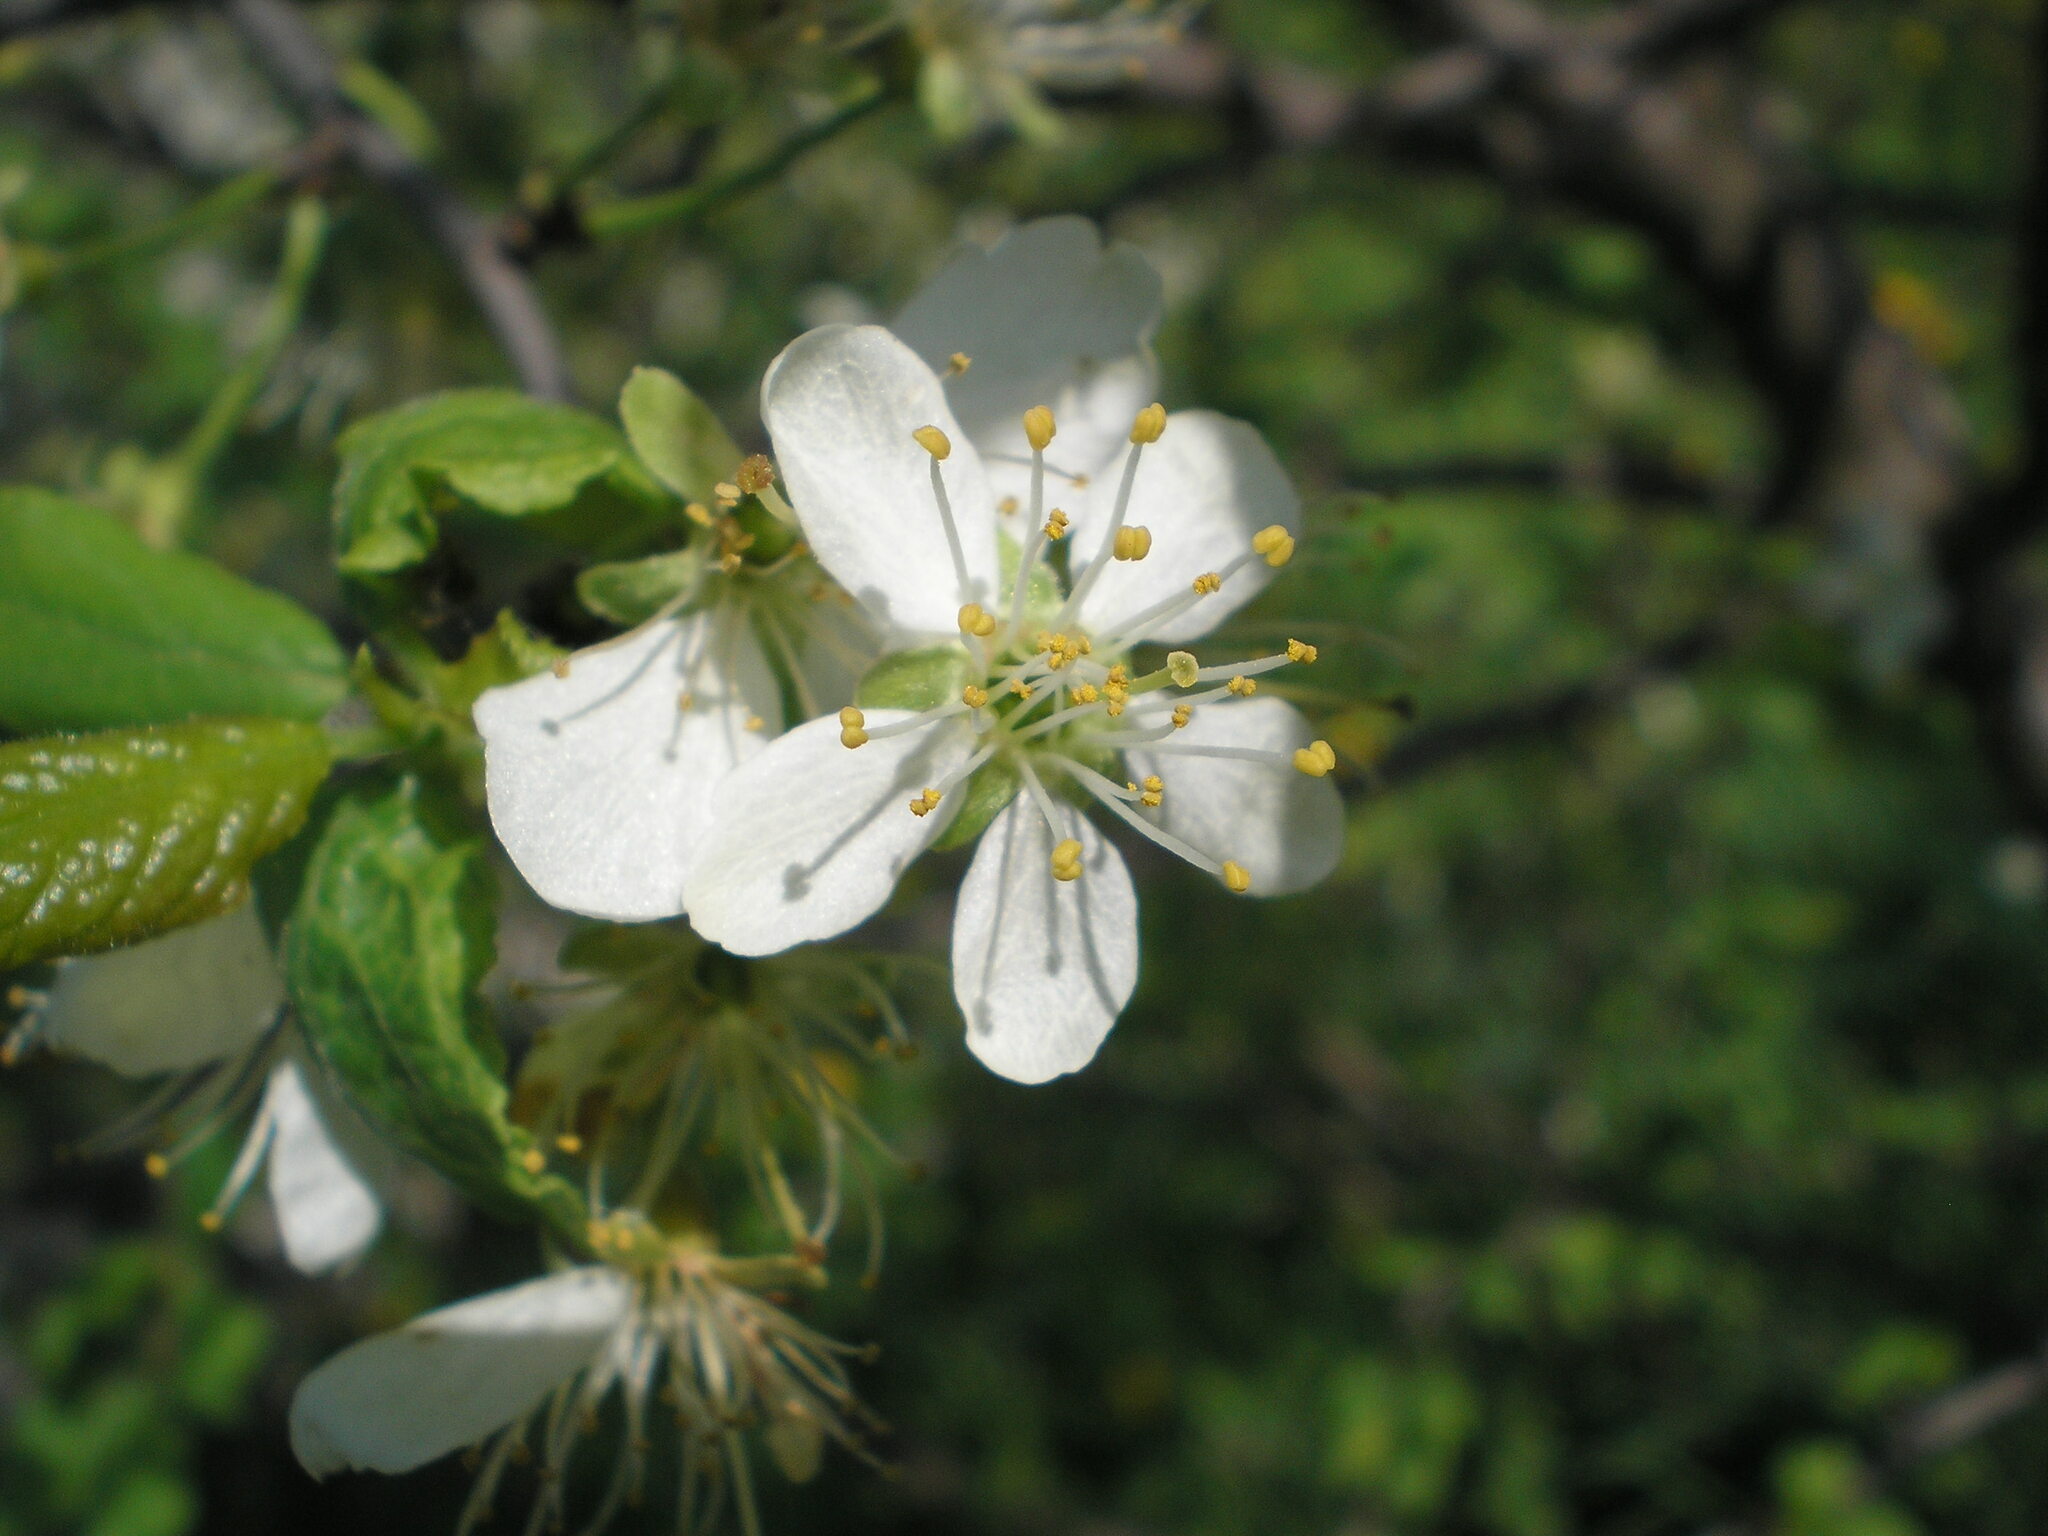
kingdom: Plantae
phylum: Tracheophyta
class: Magnoliopsida
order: Rosales
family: Rosaceae
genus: Prunus
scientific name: Prunus domestica
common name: Wild plum
